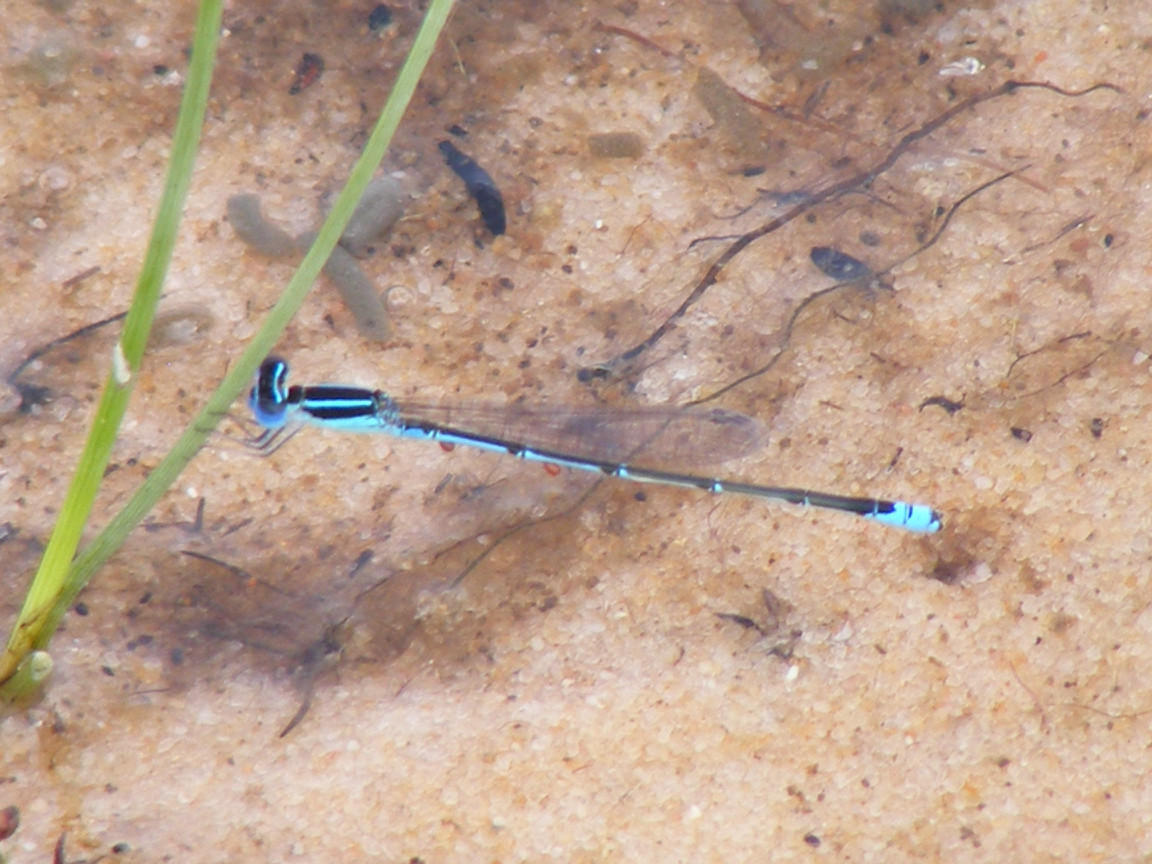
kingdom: Animalia
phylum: Arthropoda
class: Insecta
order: Odonata
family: Coenagrionidae
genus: Azuragrion
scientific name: Azuragrion nigridorsum
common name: Sailing azuret
